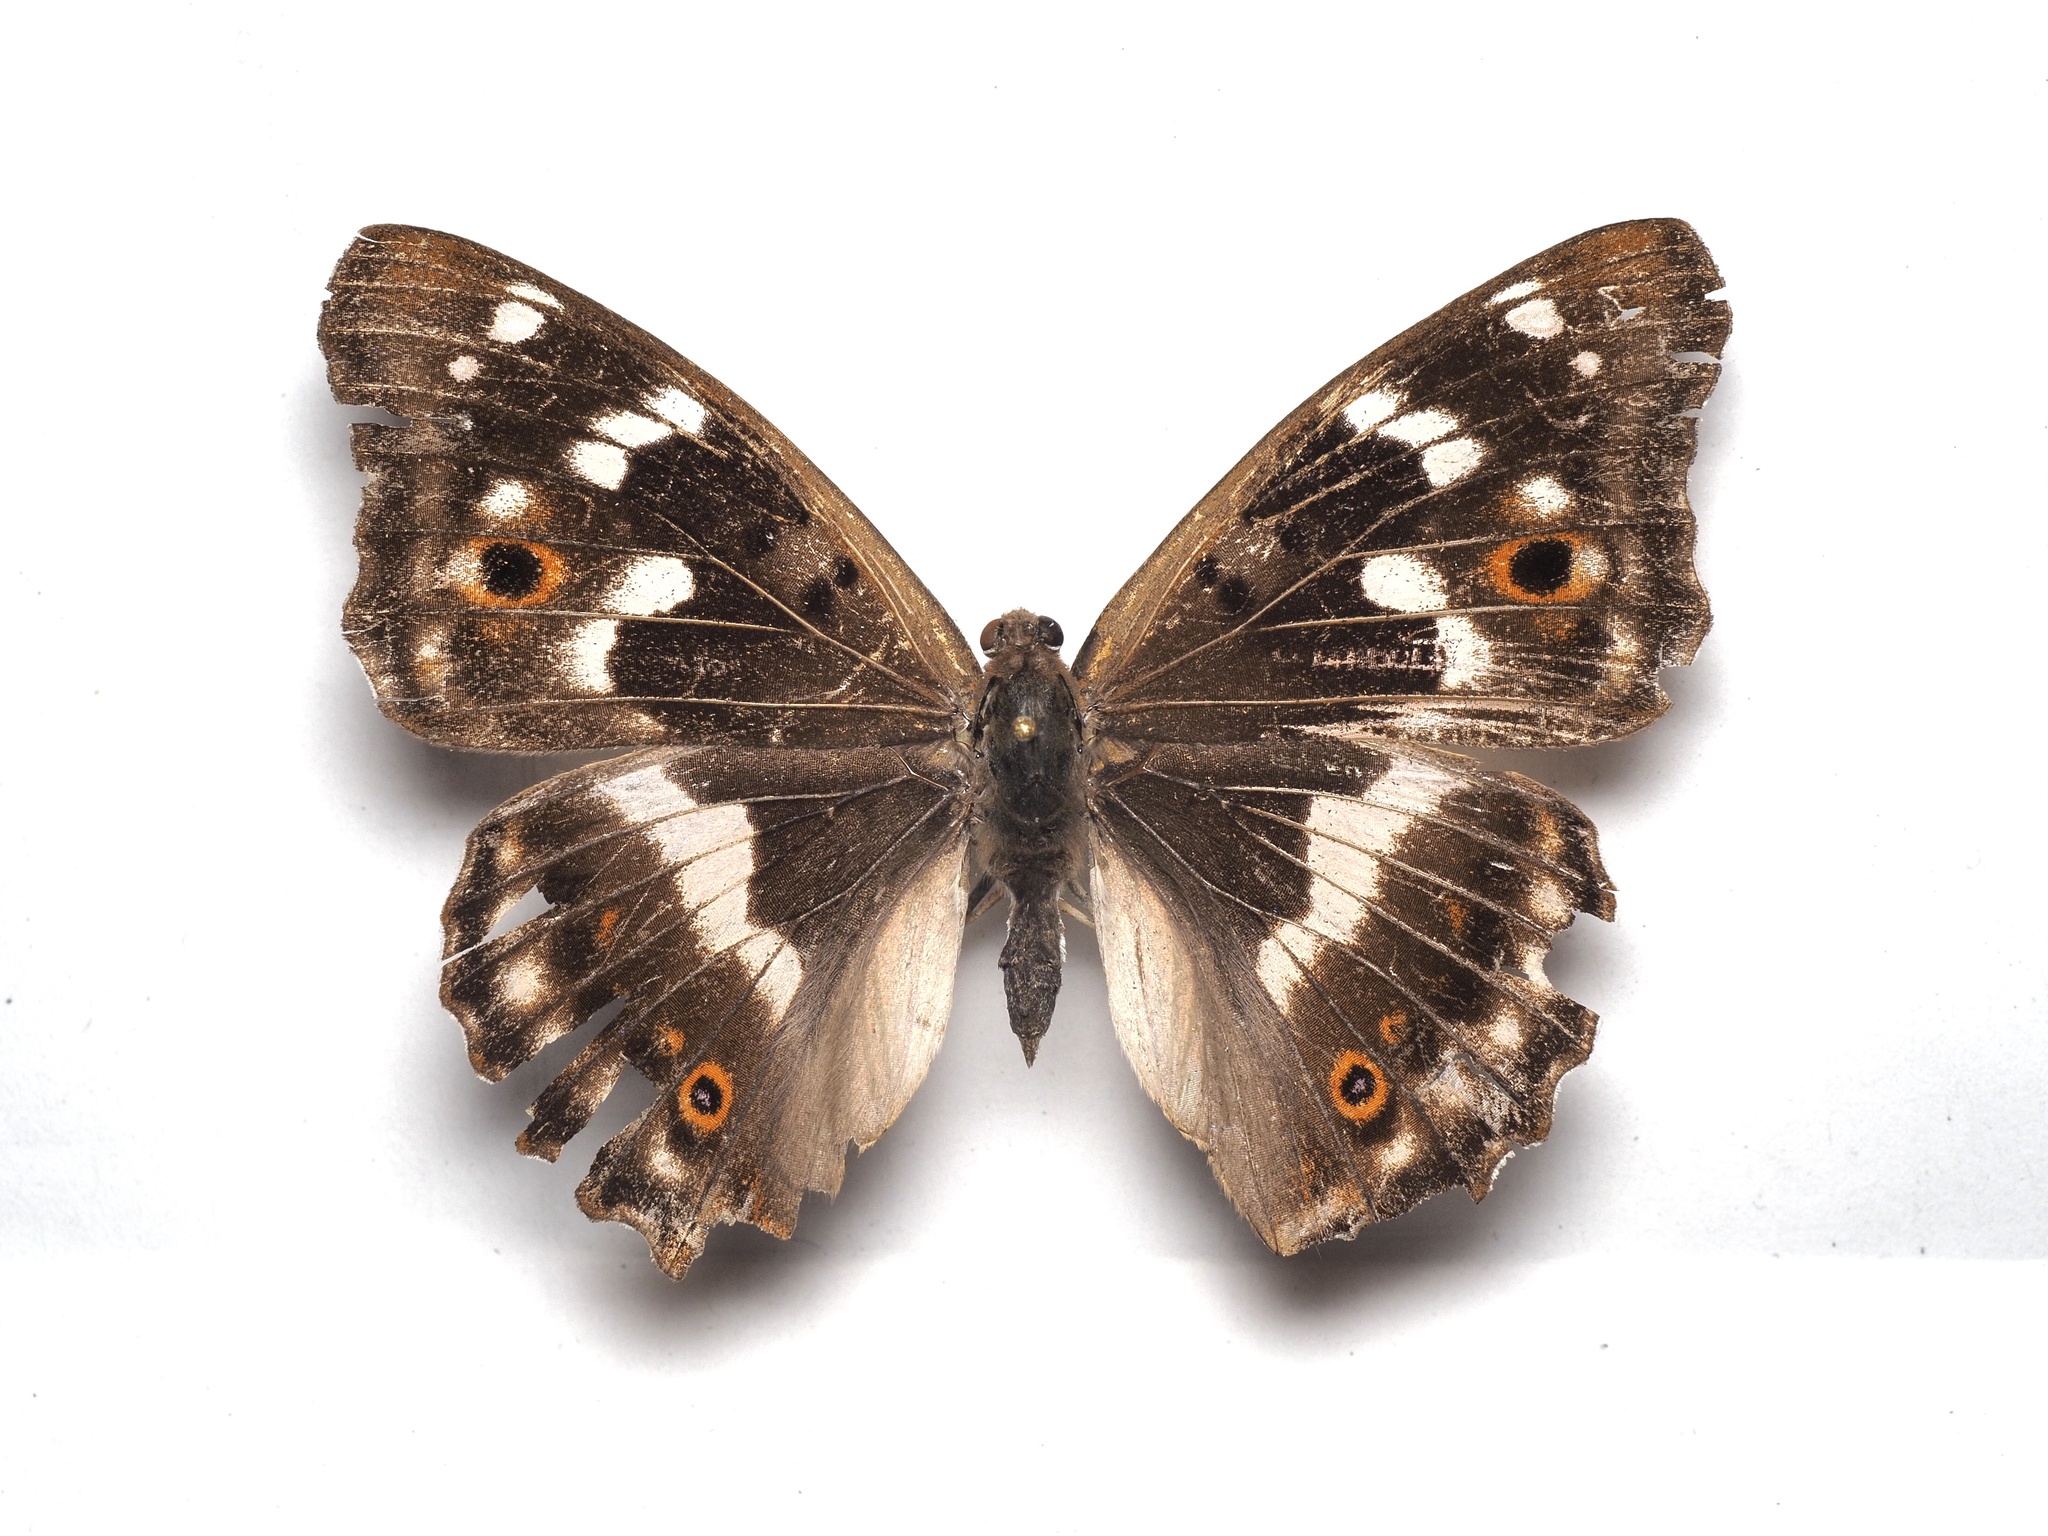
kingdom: Animalia
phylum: Arthropoda
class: Insecta
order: Lepidoptera
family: Nymphalidae
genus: Apatura
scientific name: Apatura ilia
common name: Lesser purple emperor
